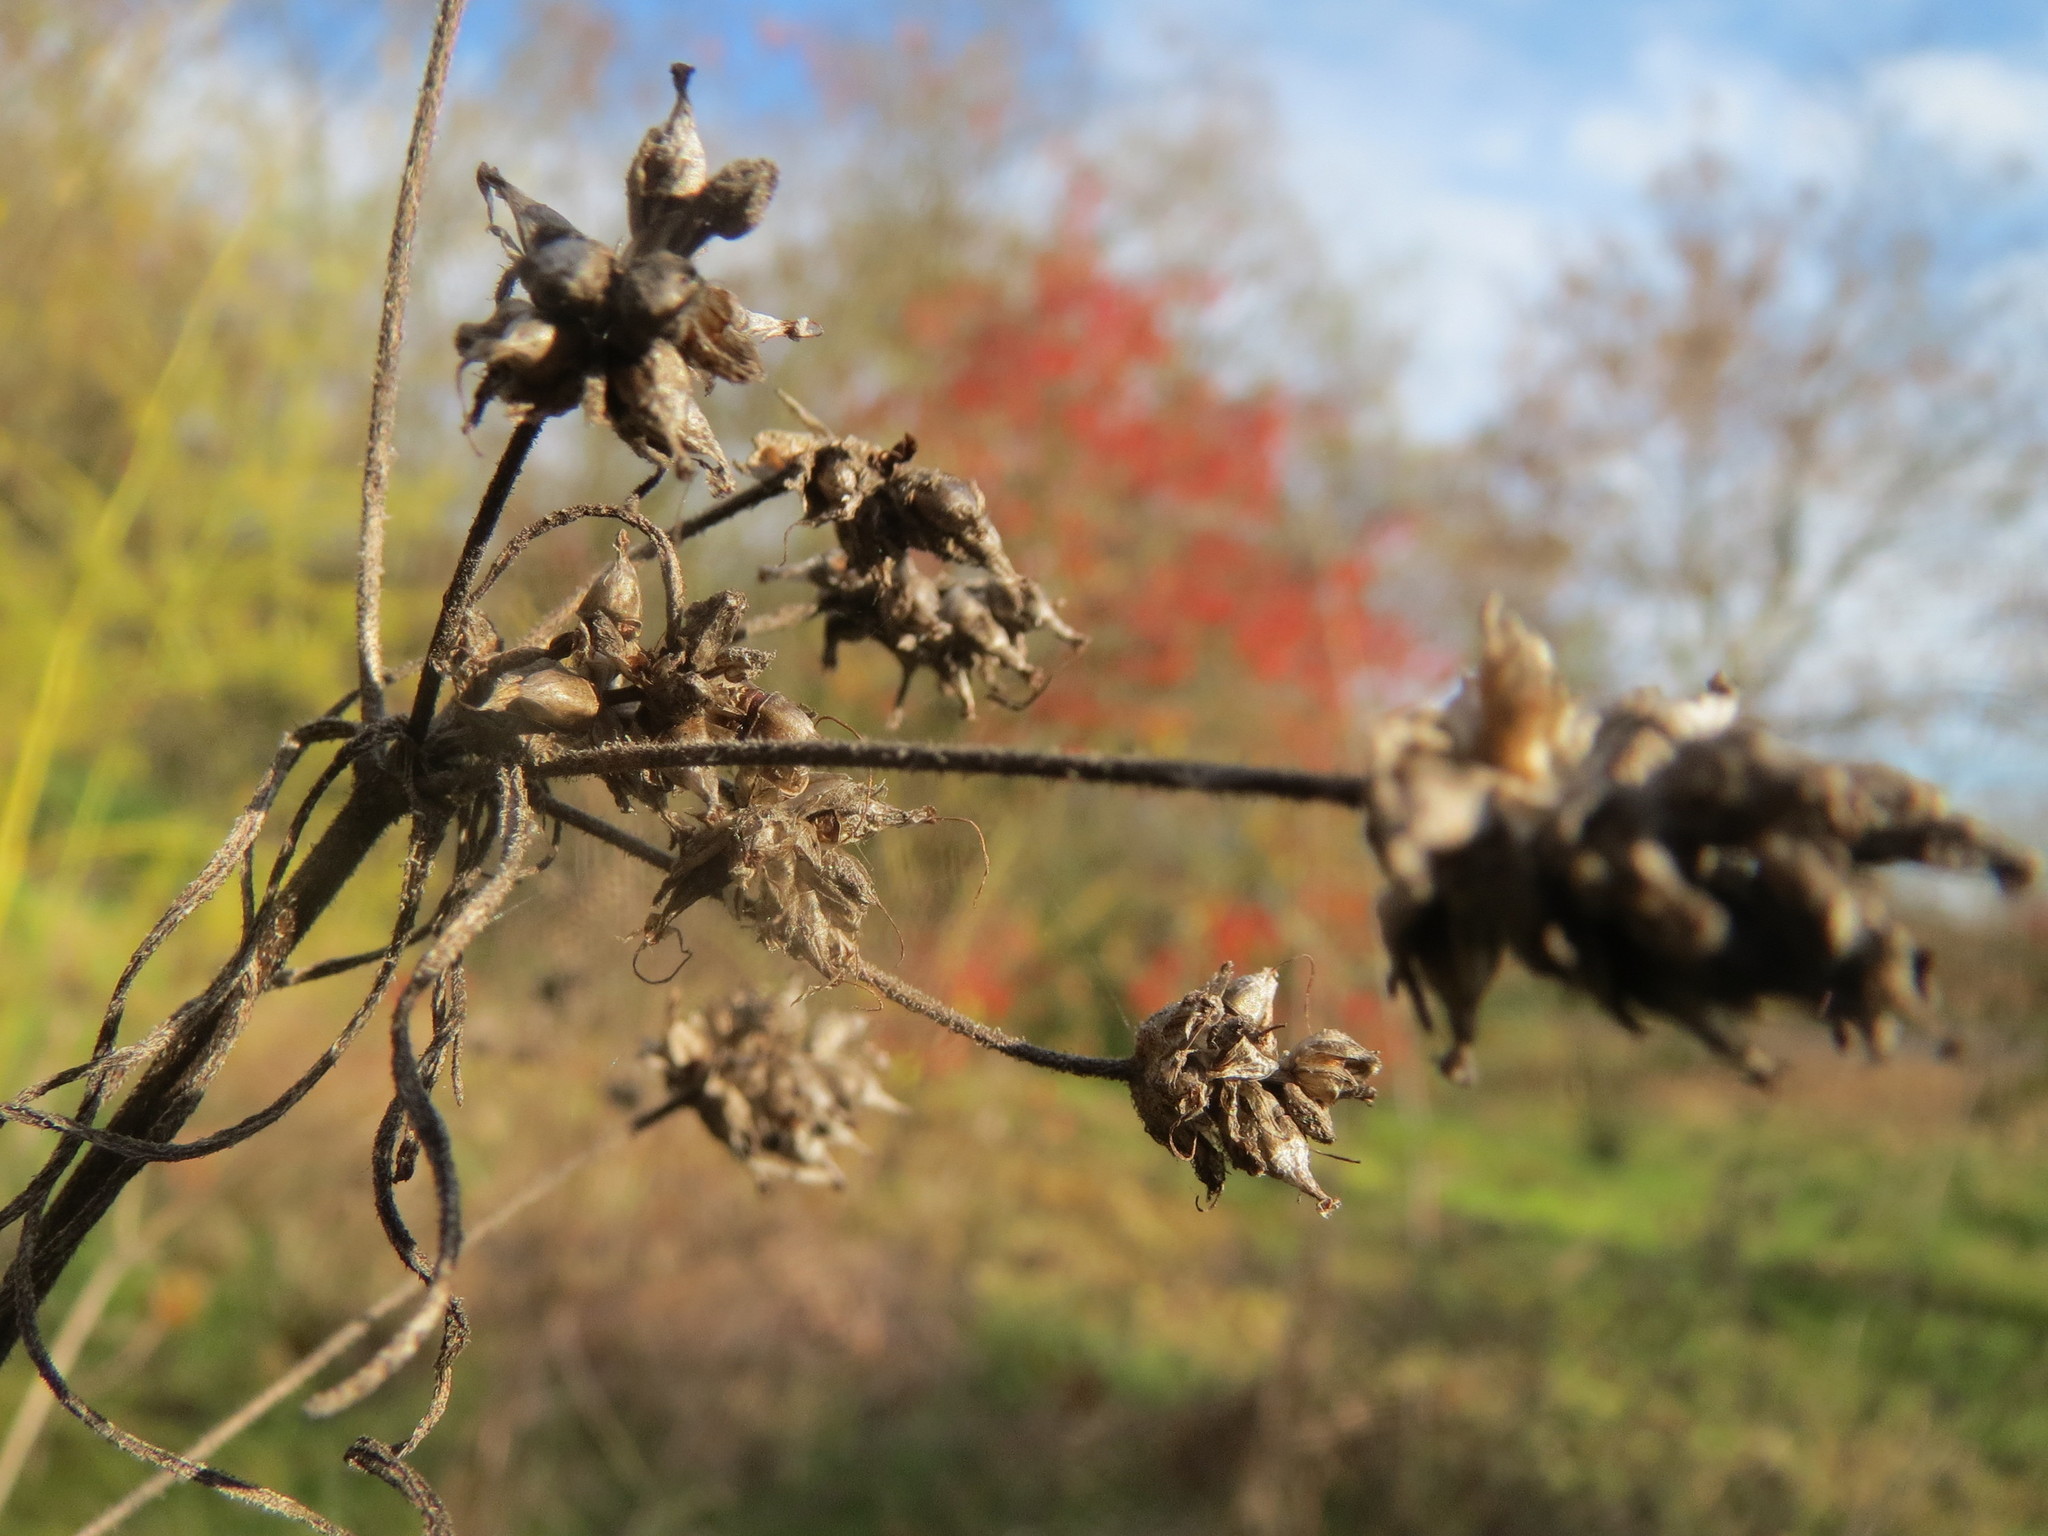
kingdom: Plantae
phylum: Tracheophyta
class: Magnoliopsida
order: Lamiales
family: Plantaginaceae
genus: Plantago
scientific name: Plantago arenaria
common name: Branched plantain
